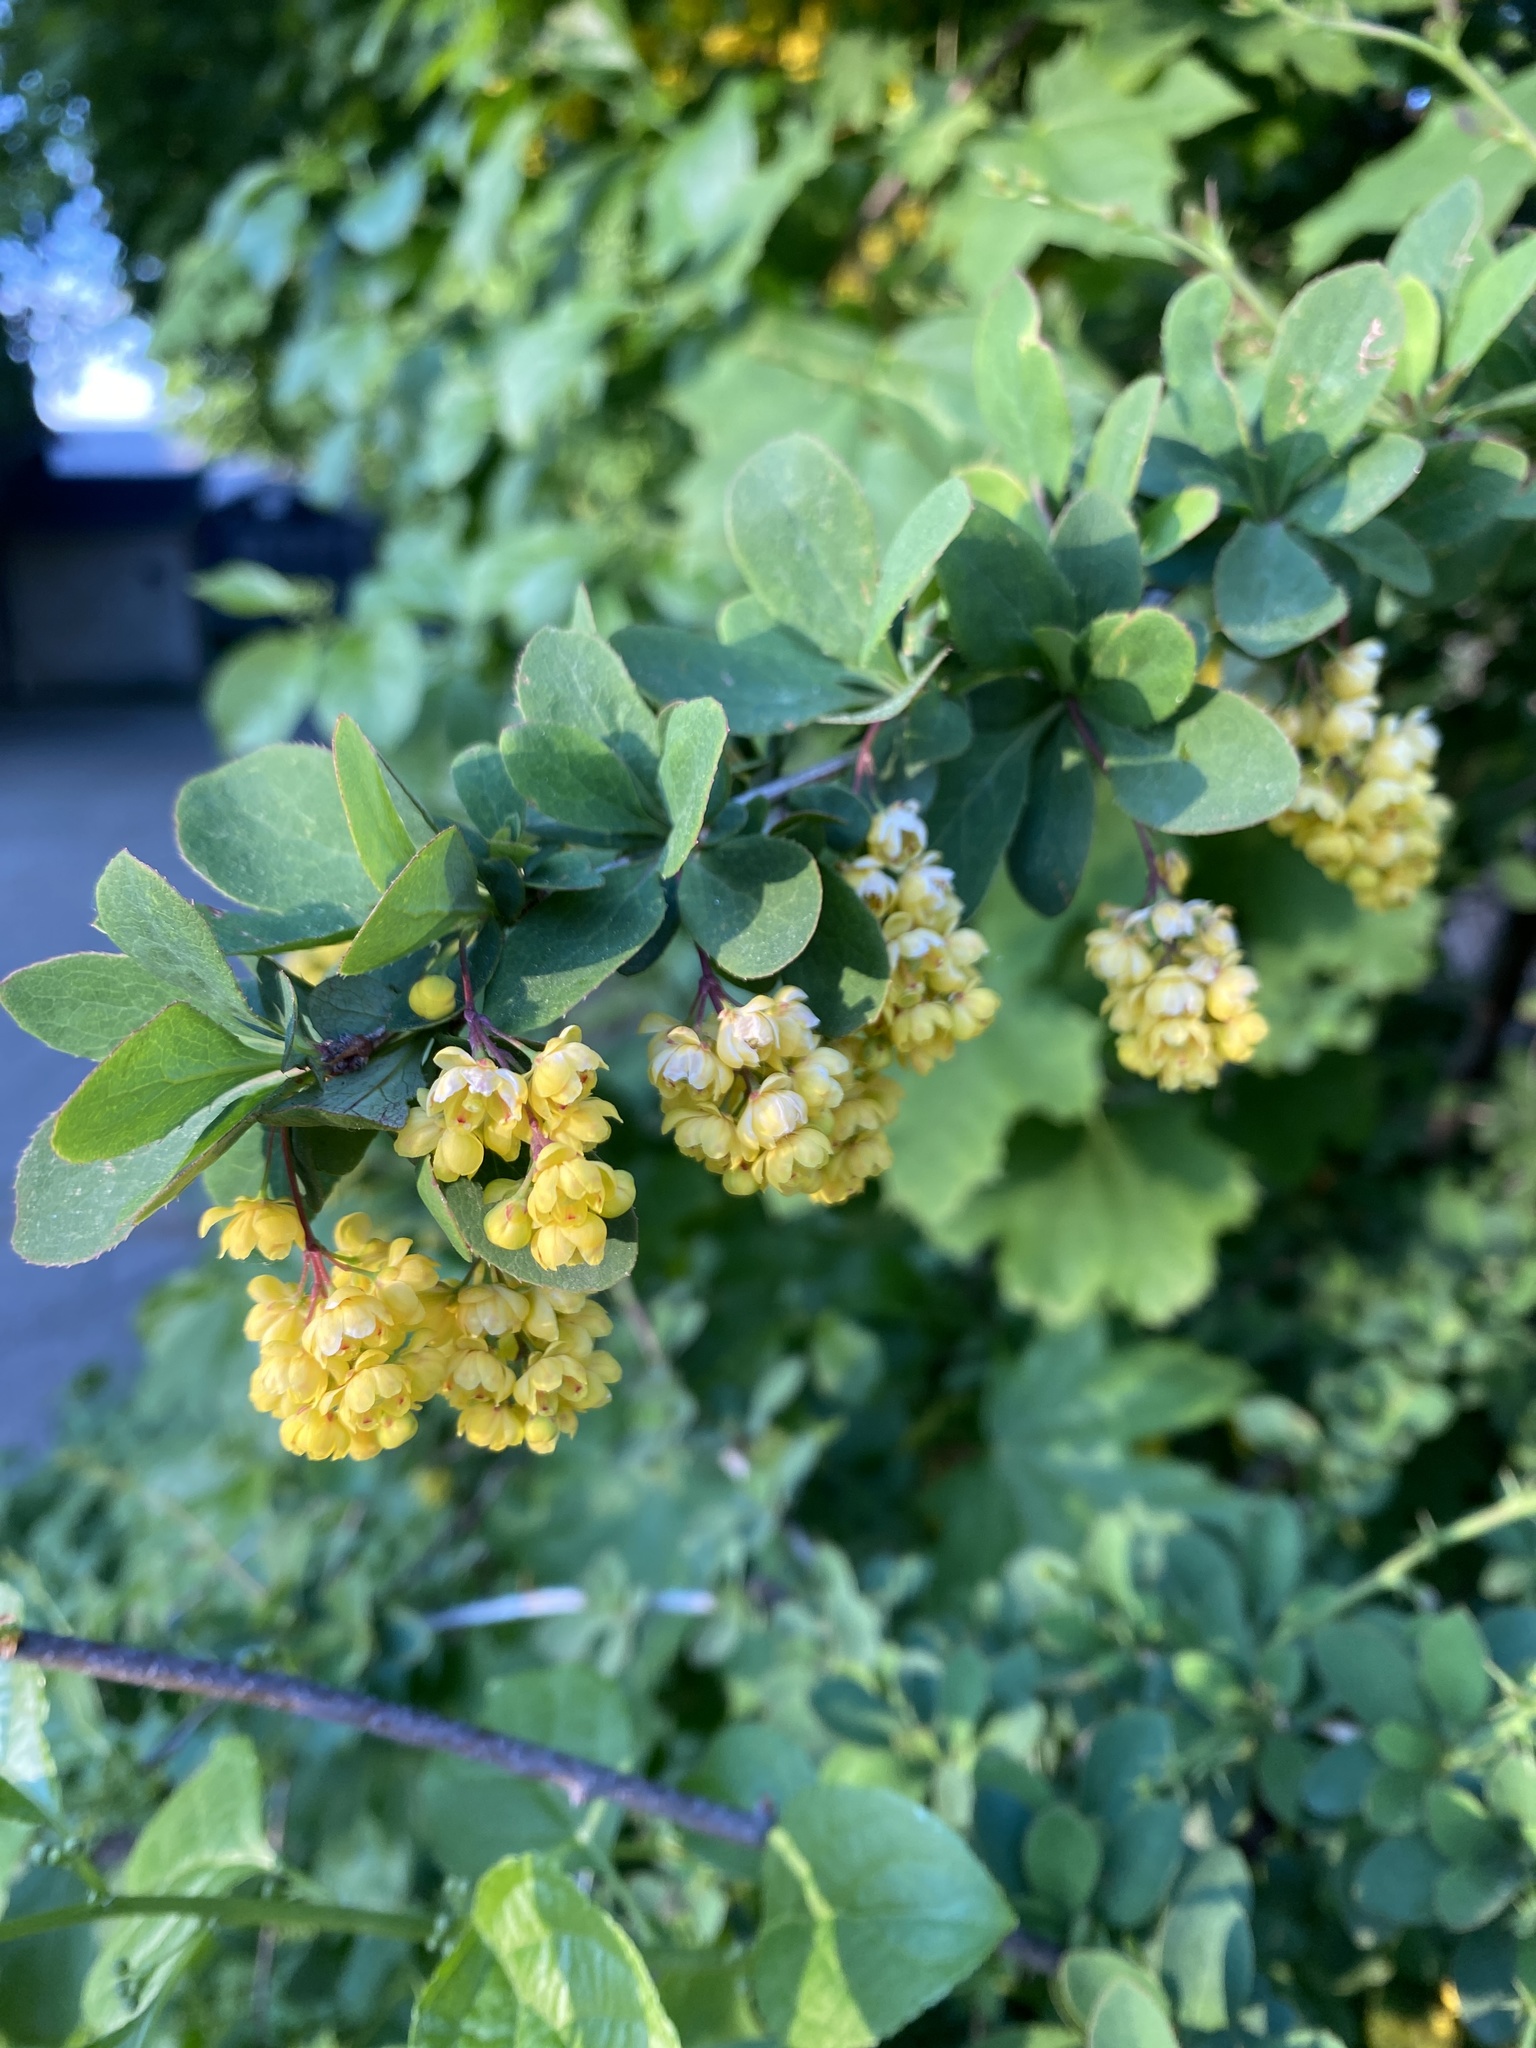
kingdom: Plantae
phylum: Tracheophyta
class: Magnoliopsida
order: Ranunculales
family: Berberidaceae
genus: Berberis
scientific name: Berberis vulgaris
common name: Barberry
